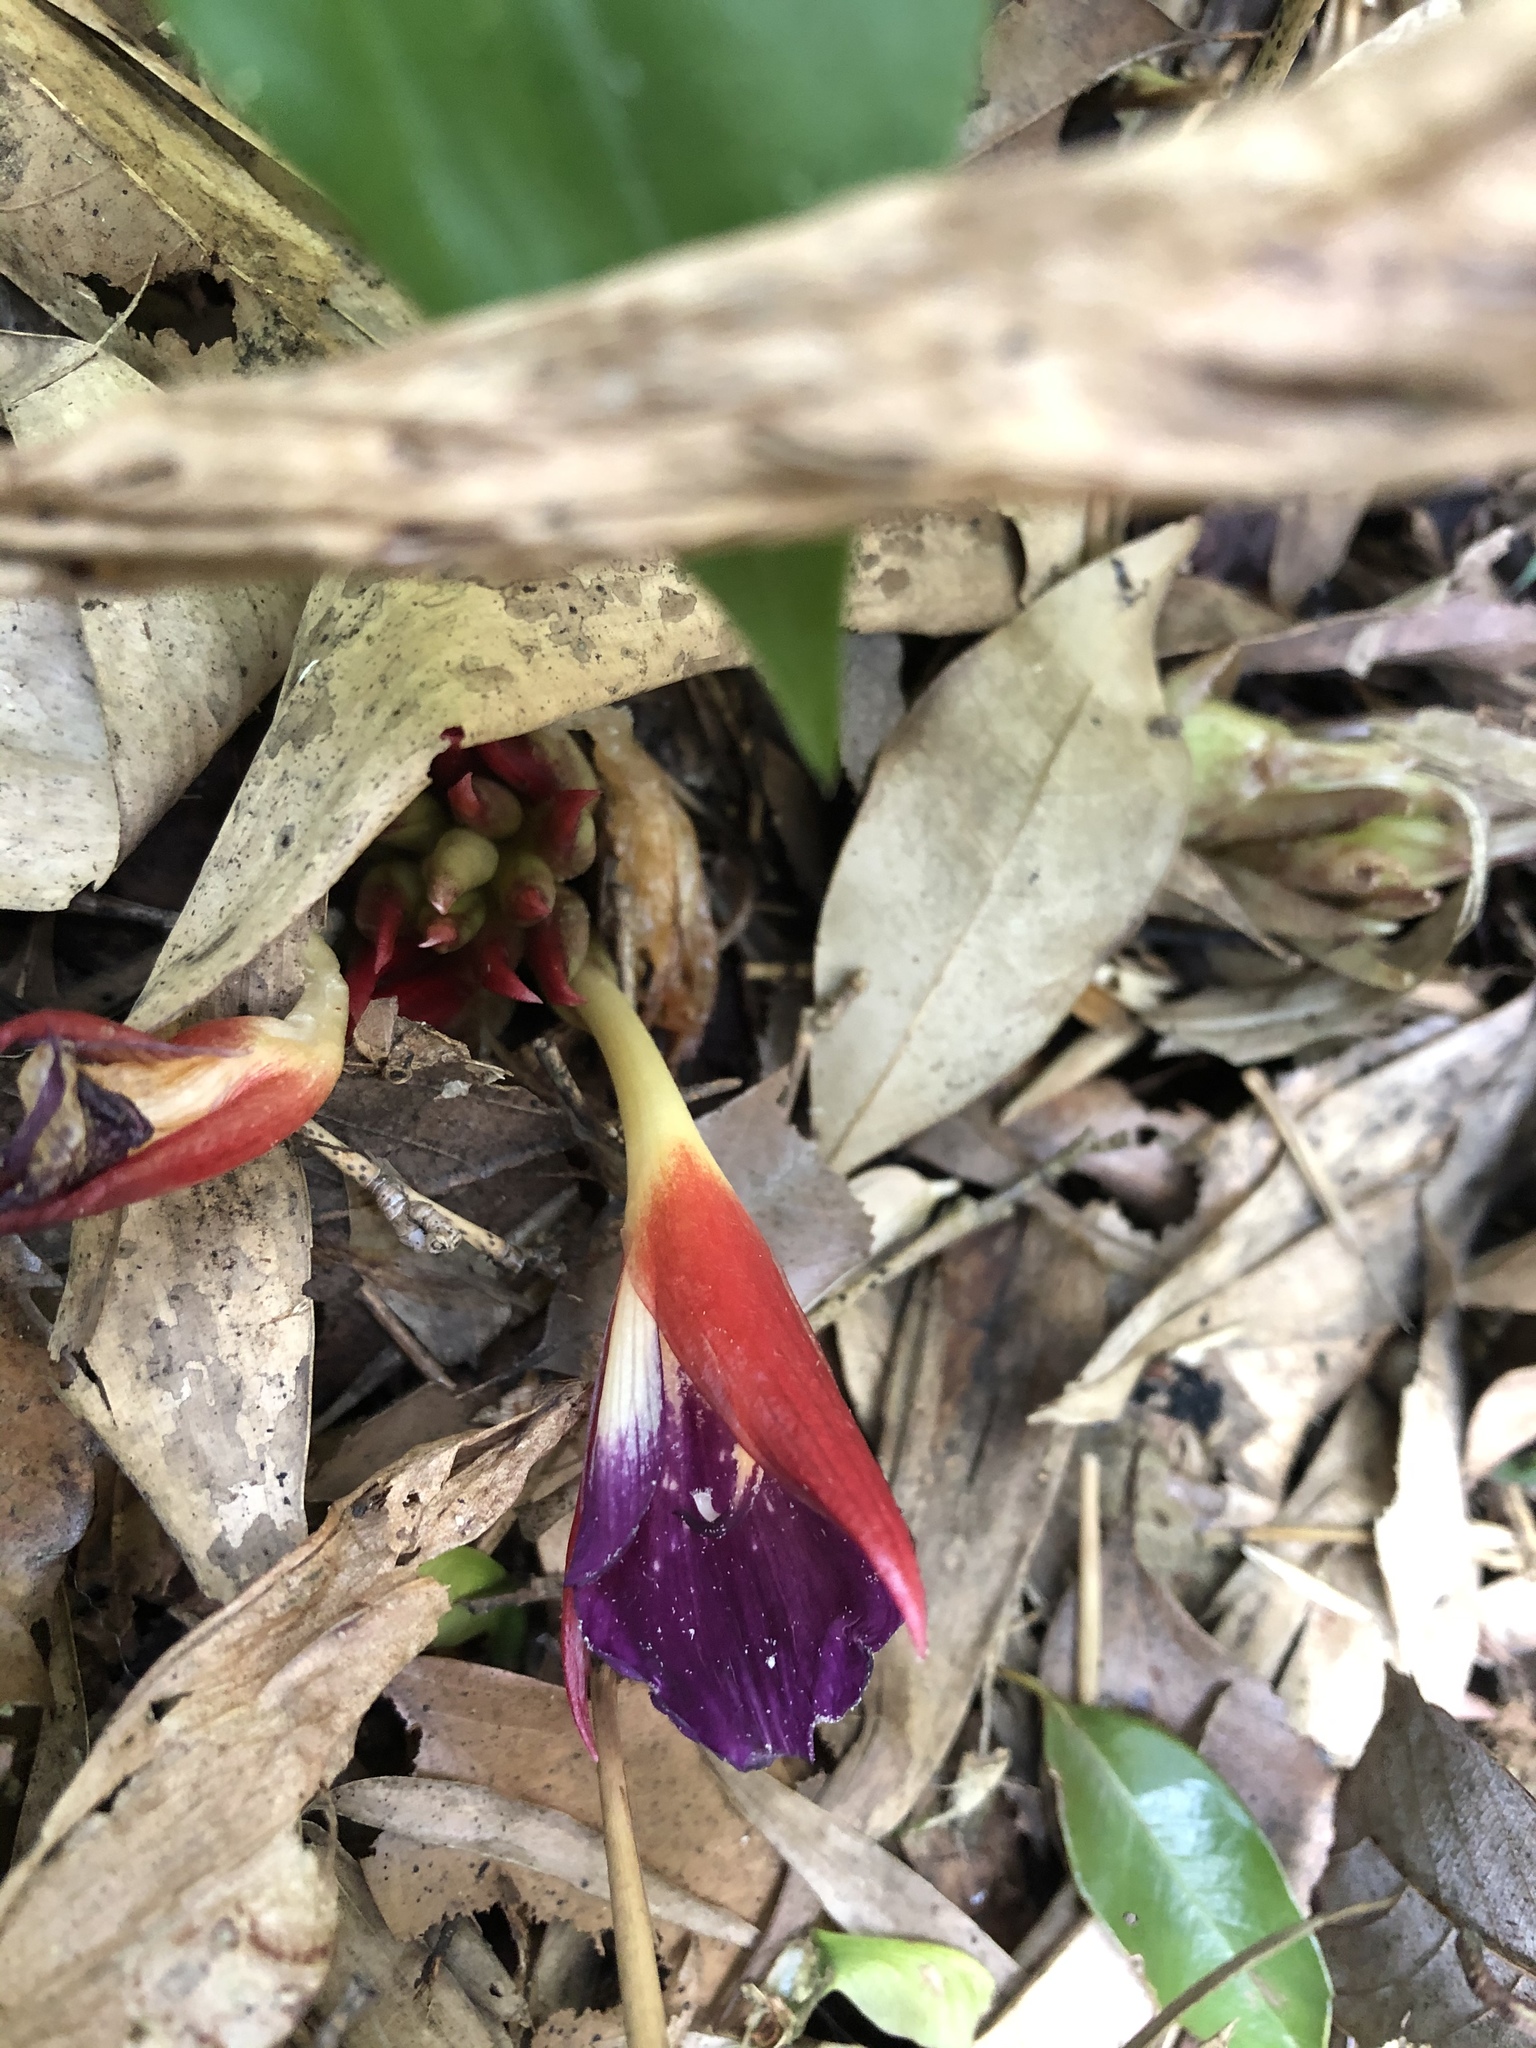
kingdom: Plantae
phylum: Tracheophyta
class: Liliopsida
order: Zingiberales
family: Zingiberaceae
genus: Zingiber
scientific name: Zingiber kawagoii
